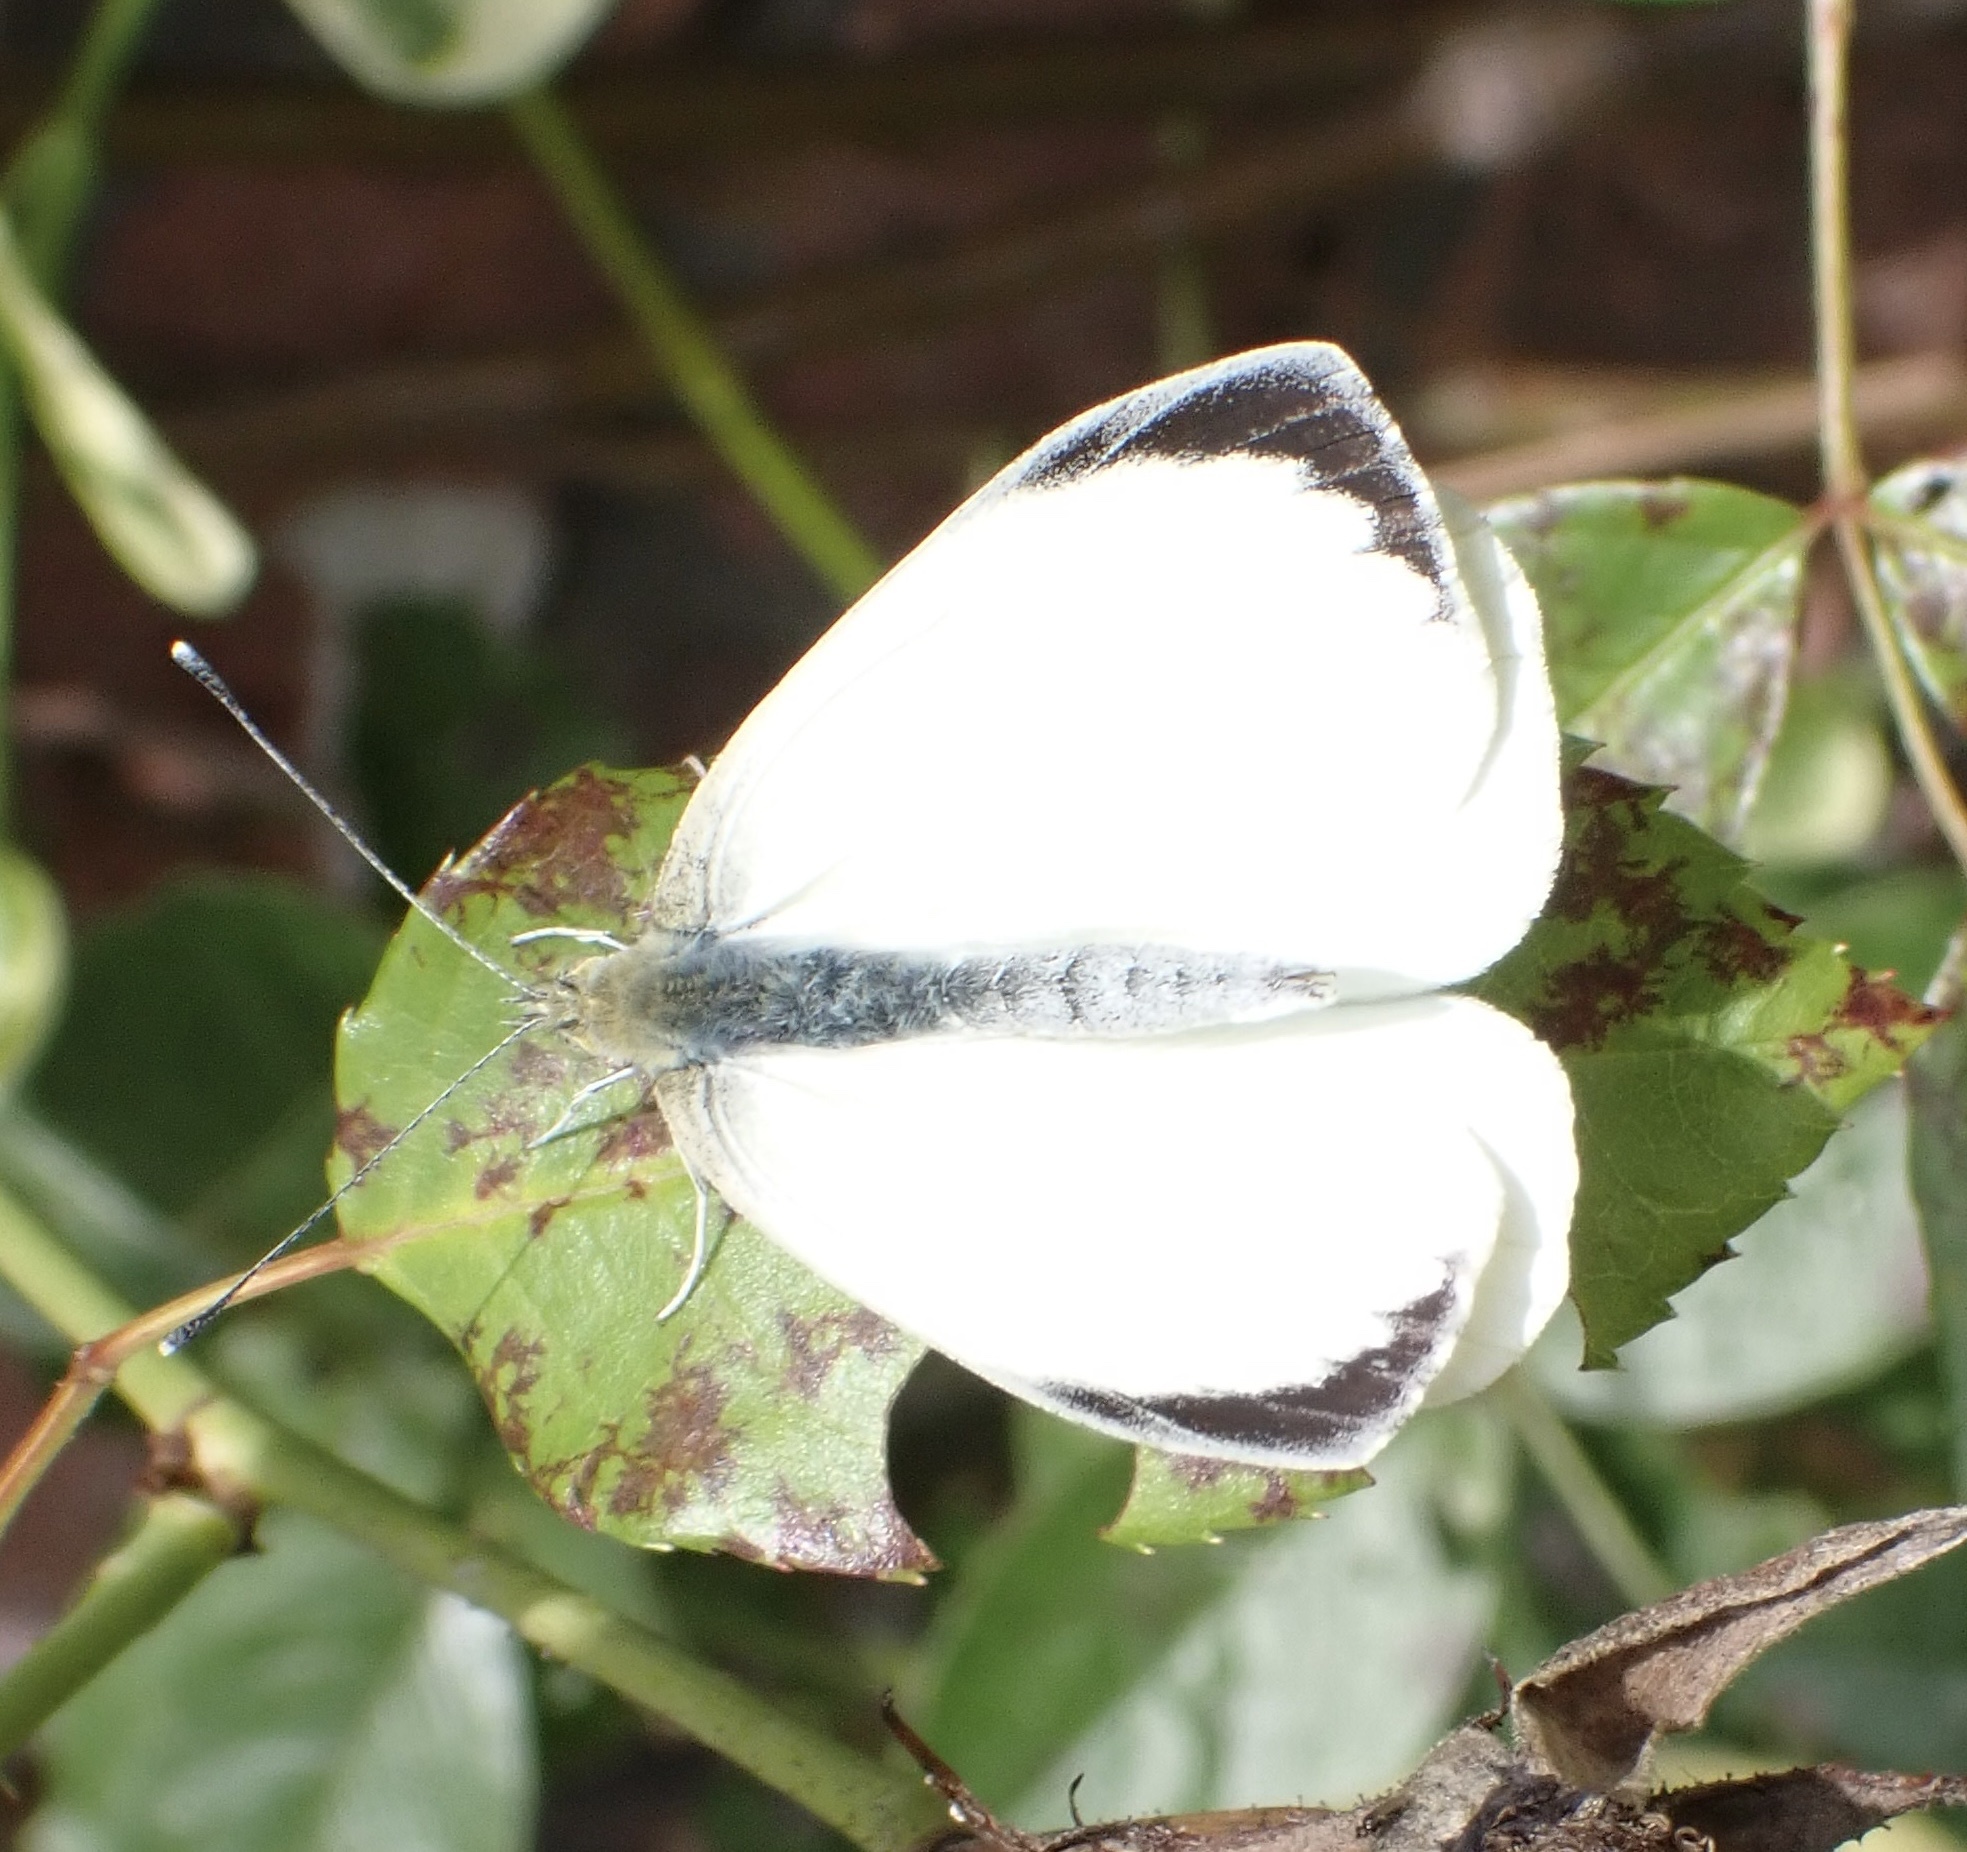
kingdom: Animalia
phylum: Arthropoda
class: Insecta
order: Lepidoptera
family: Pieridae
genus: Pieris
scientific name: Pieris brassicae
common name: Large white
